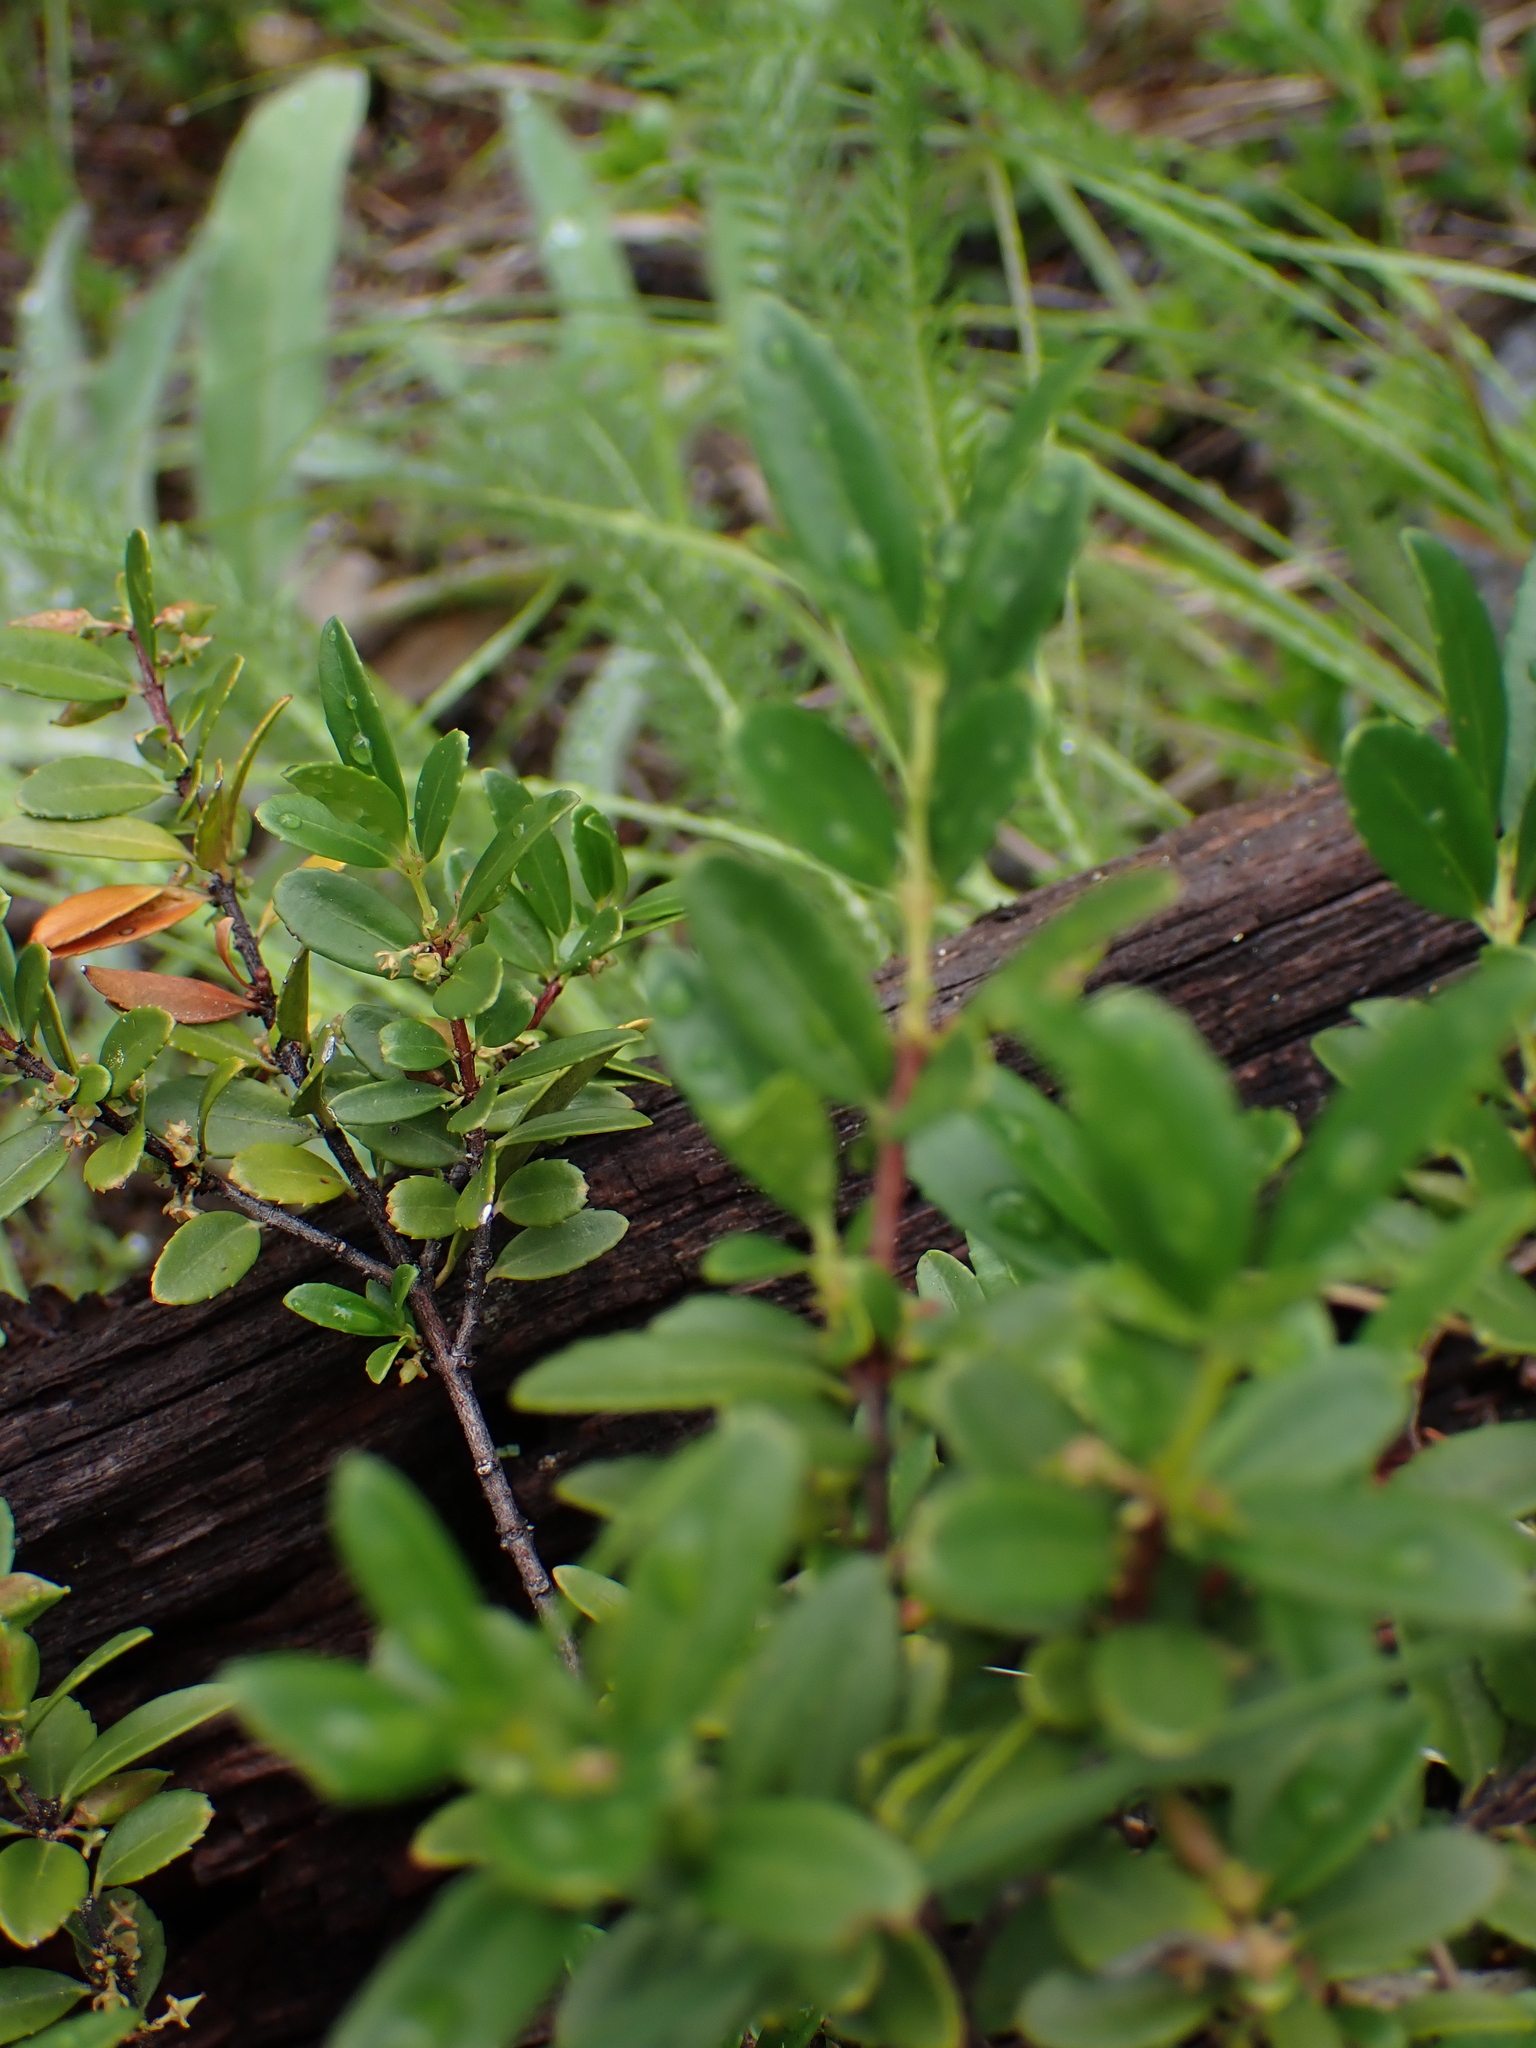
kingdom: Plantae
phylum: Tracheophyta
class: Magnoliopsida
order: Celastrales
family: Celastraceae
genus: Paxistima
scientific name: Paxistima myrsinites
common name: Mountain-lover
